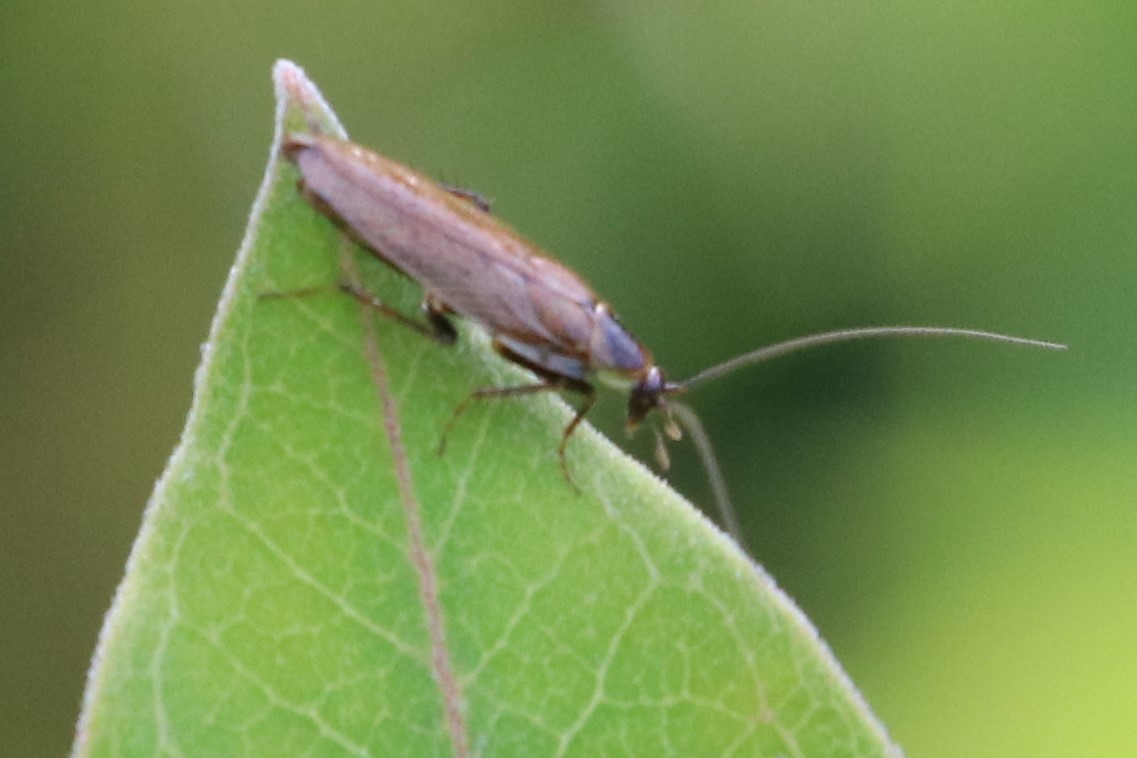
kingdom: Animalia
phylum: Arthropoda
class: Insecta
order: Blattodea
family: Ectobiidae
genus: Ectobius
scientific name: Ectobius lapponicus
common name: Dusky cockroach
